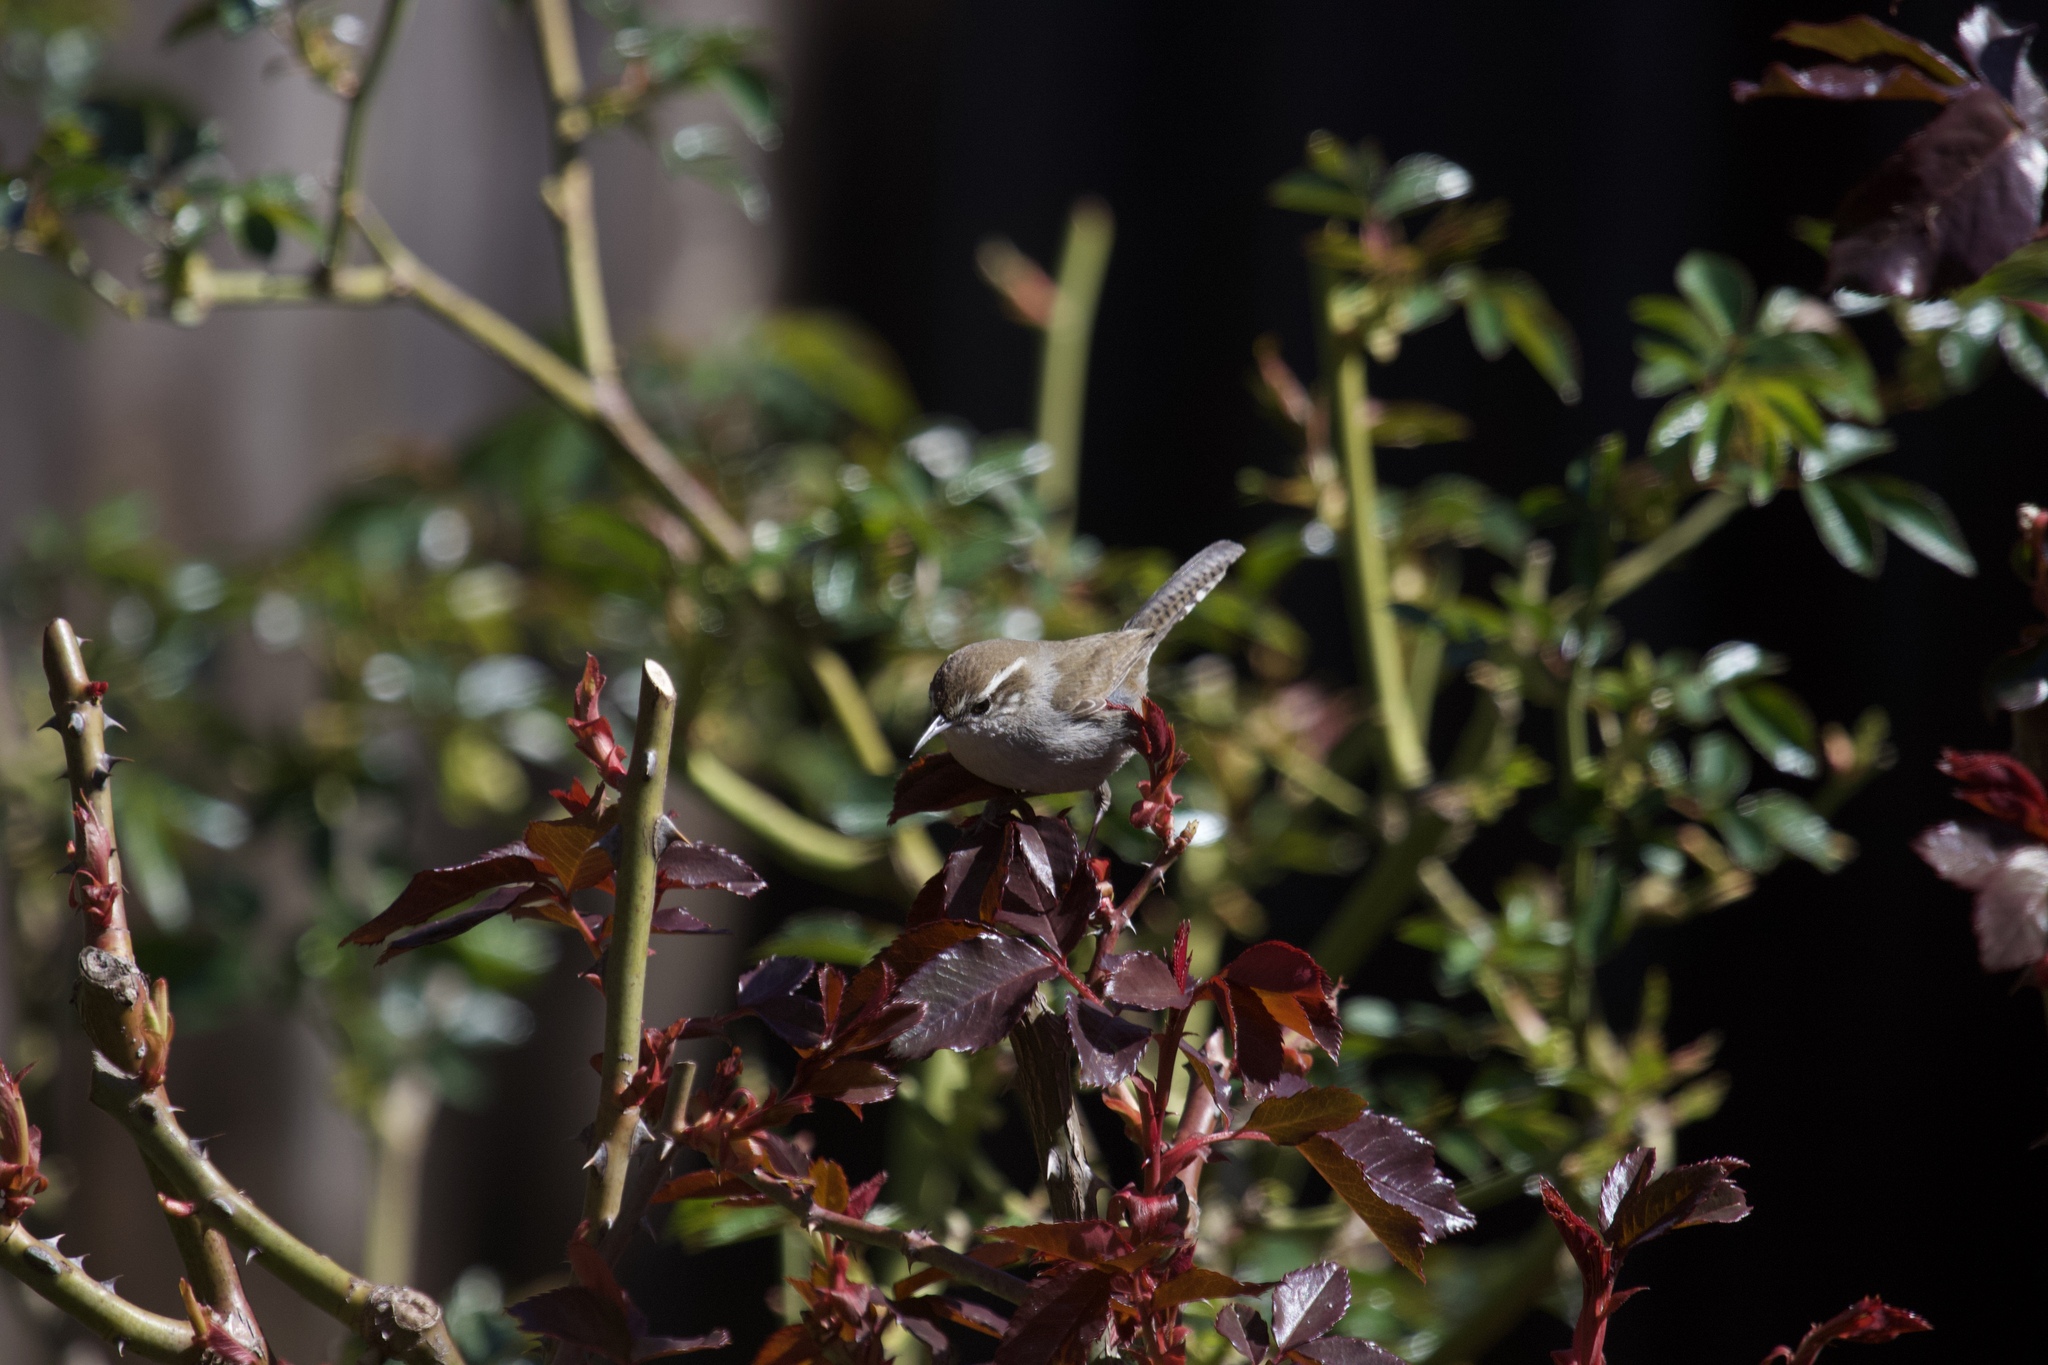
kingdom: Animalia
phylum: Chordata
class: Aves
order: Passeriformes
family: Troglodytidae
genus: Thryomanes
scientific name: Thryomanes bewickii
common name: Bewick's wren
